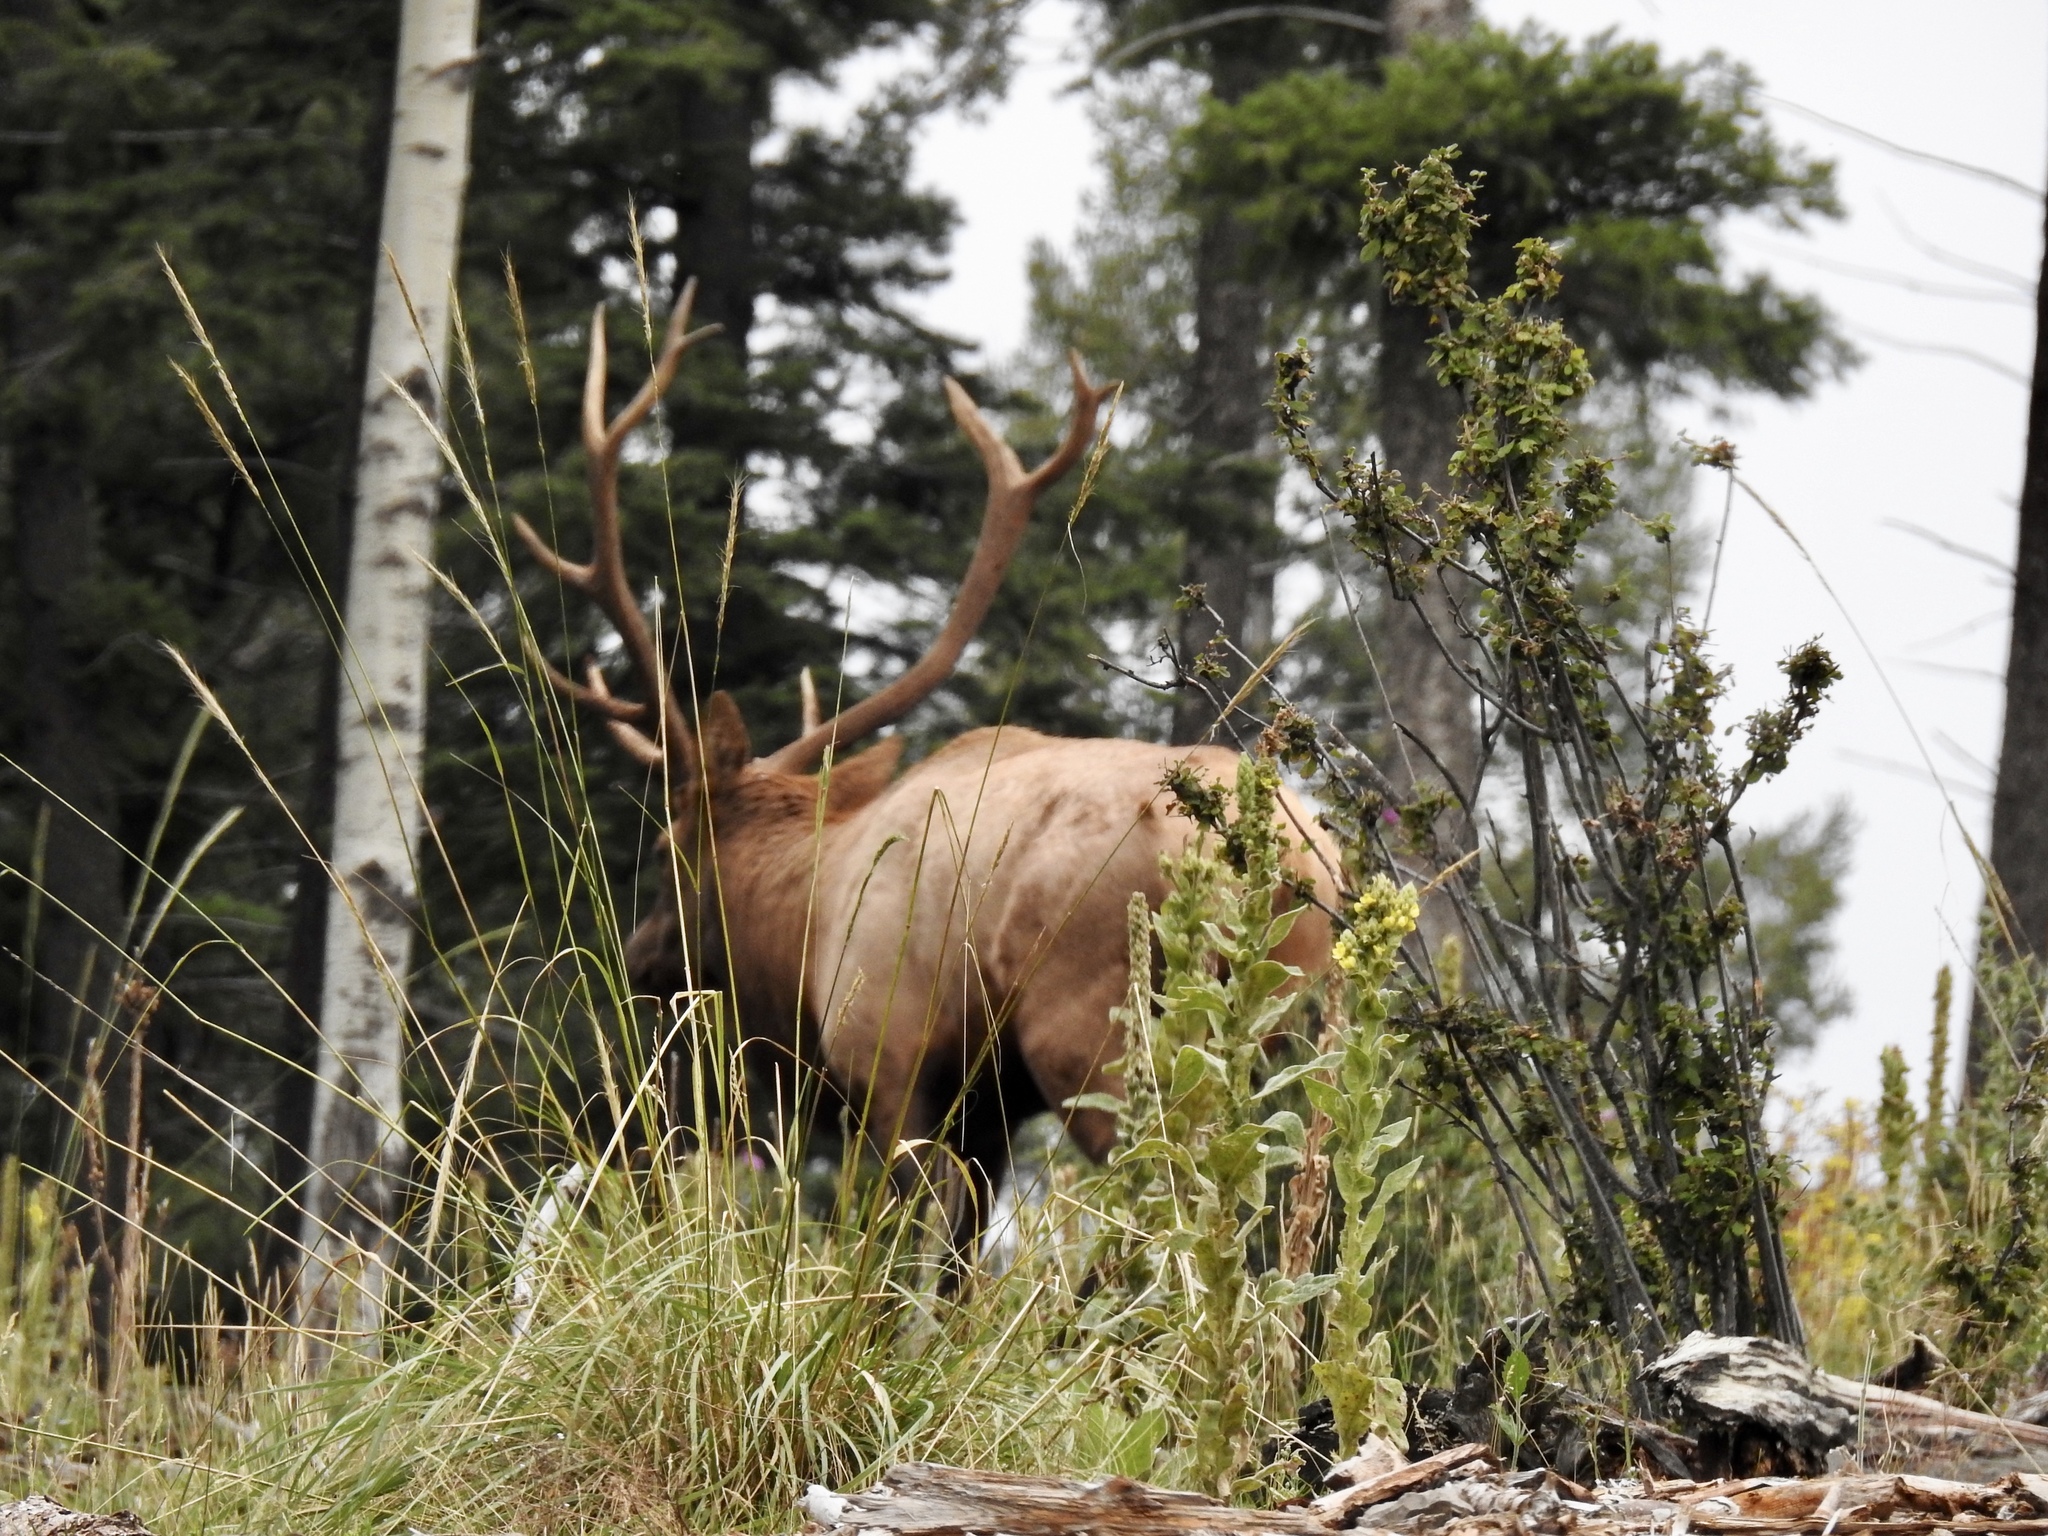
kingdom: Animalia
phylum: Chordata
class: Mammalia
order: Artiodactyla
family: Cervidae
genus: Cervus
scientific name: Cervus elaphus
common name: Red deer
